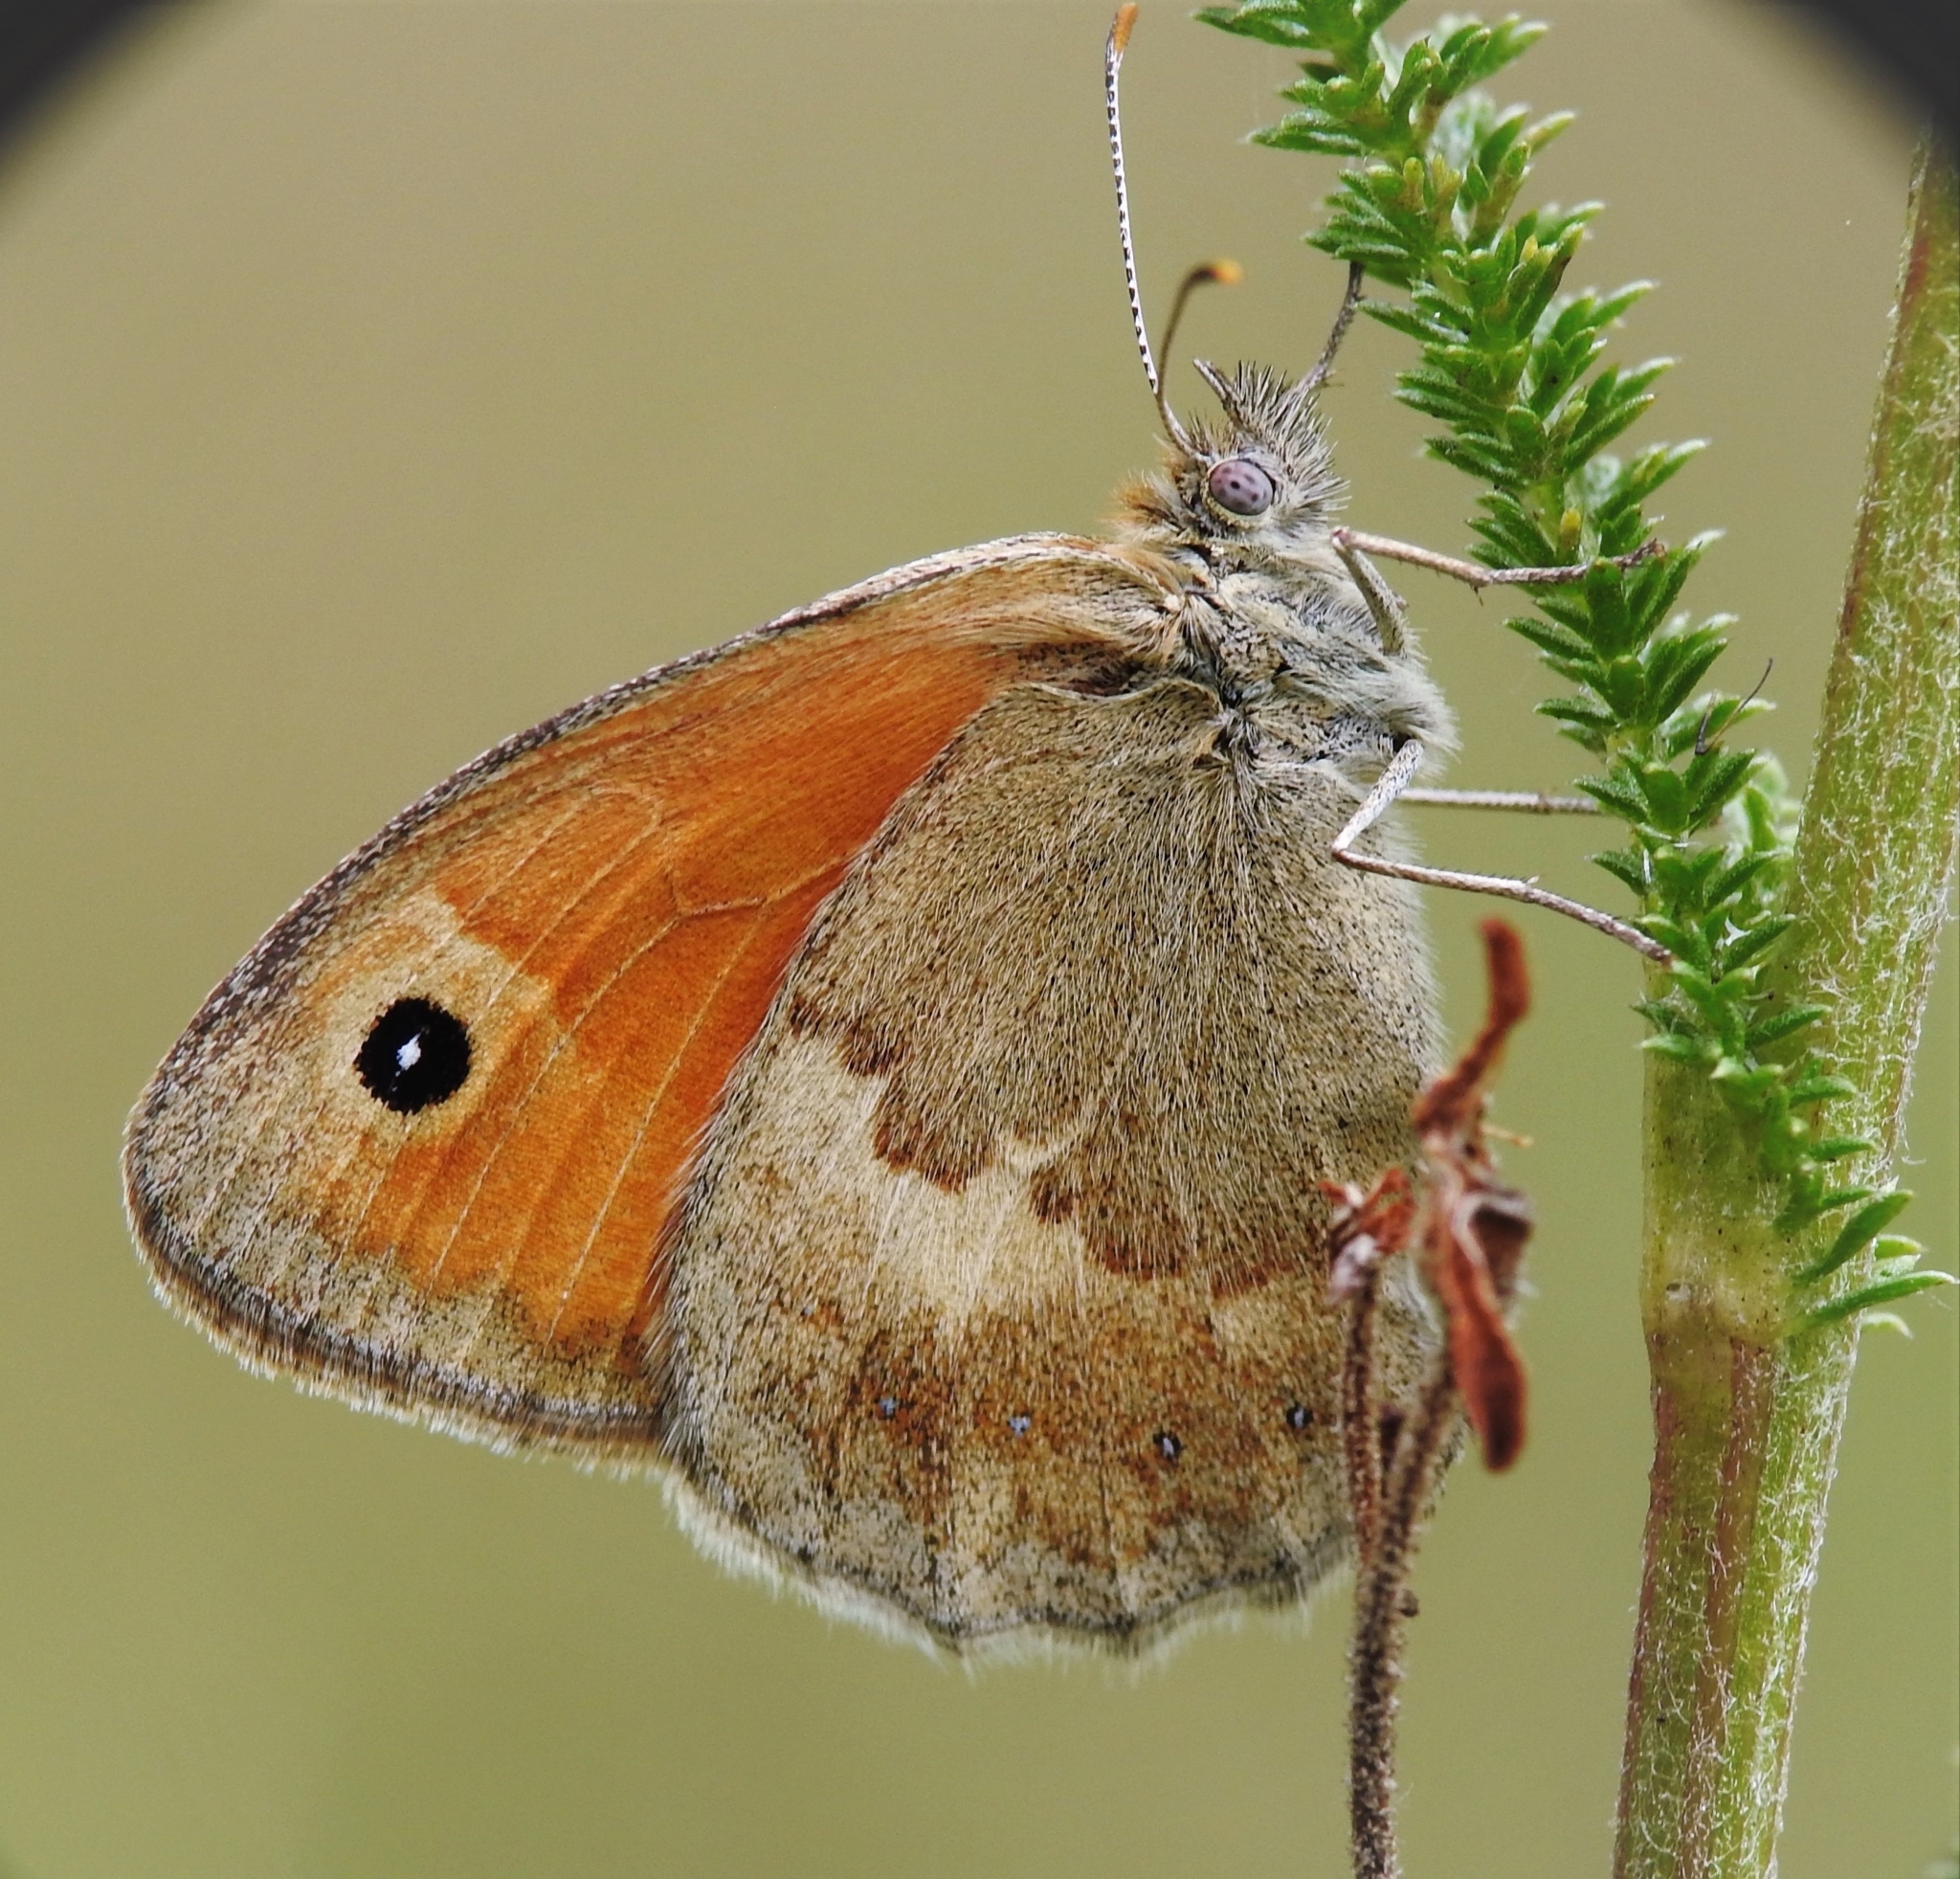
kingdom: Animalia
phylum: Arthropoda
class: Insecta
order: Lepidoptera
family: Nymphalidae
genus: Coenonympha
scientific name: Coenonympha pamphilus
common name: Small heath
